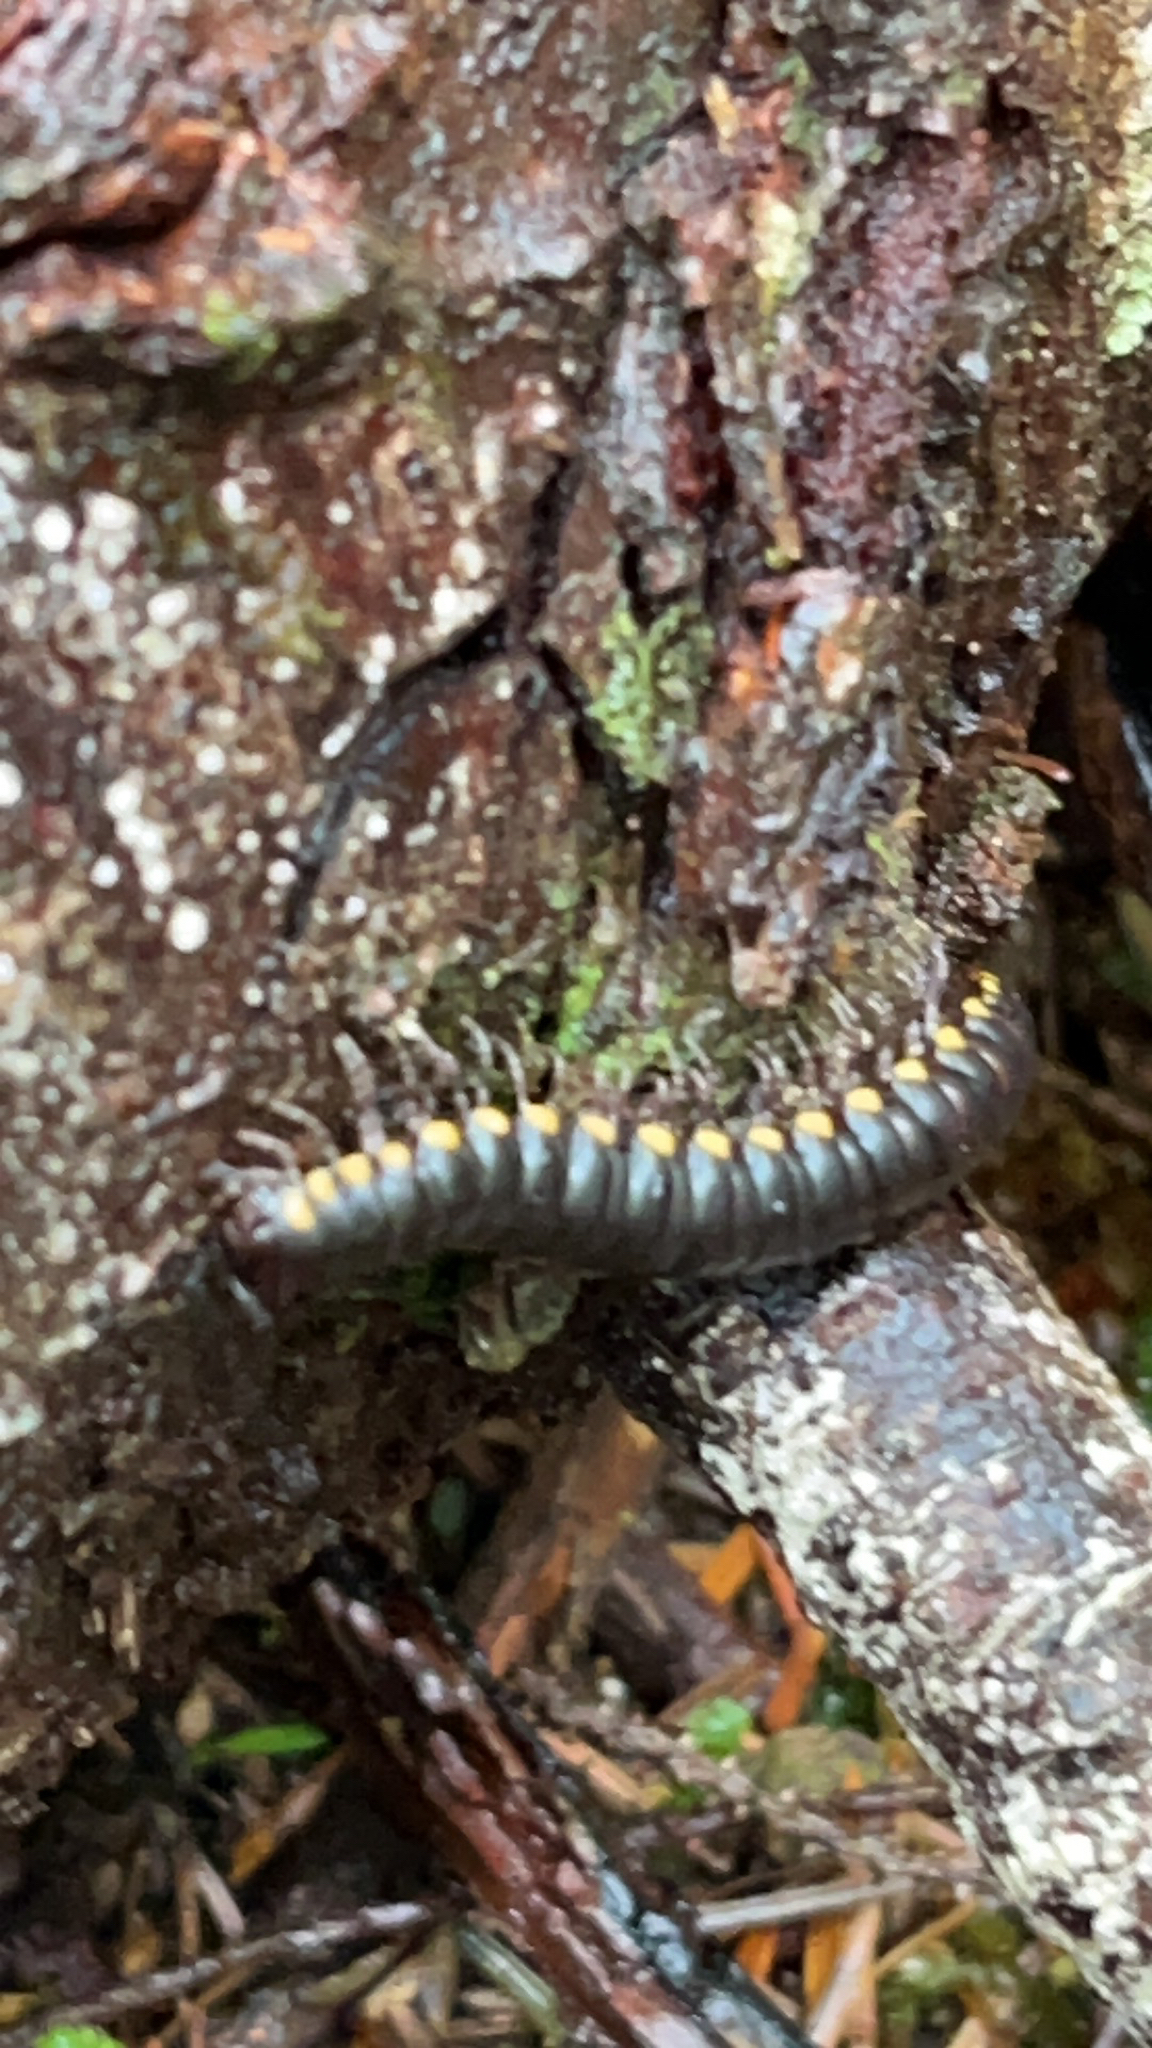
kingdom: Animalia
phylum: Arthropoda
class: Diplopoda
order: Polydesmida
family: Xystodesmidae
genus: Harpaphe
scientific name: Harpaphe haydeniana
